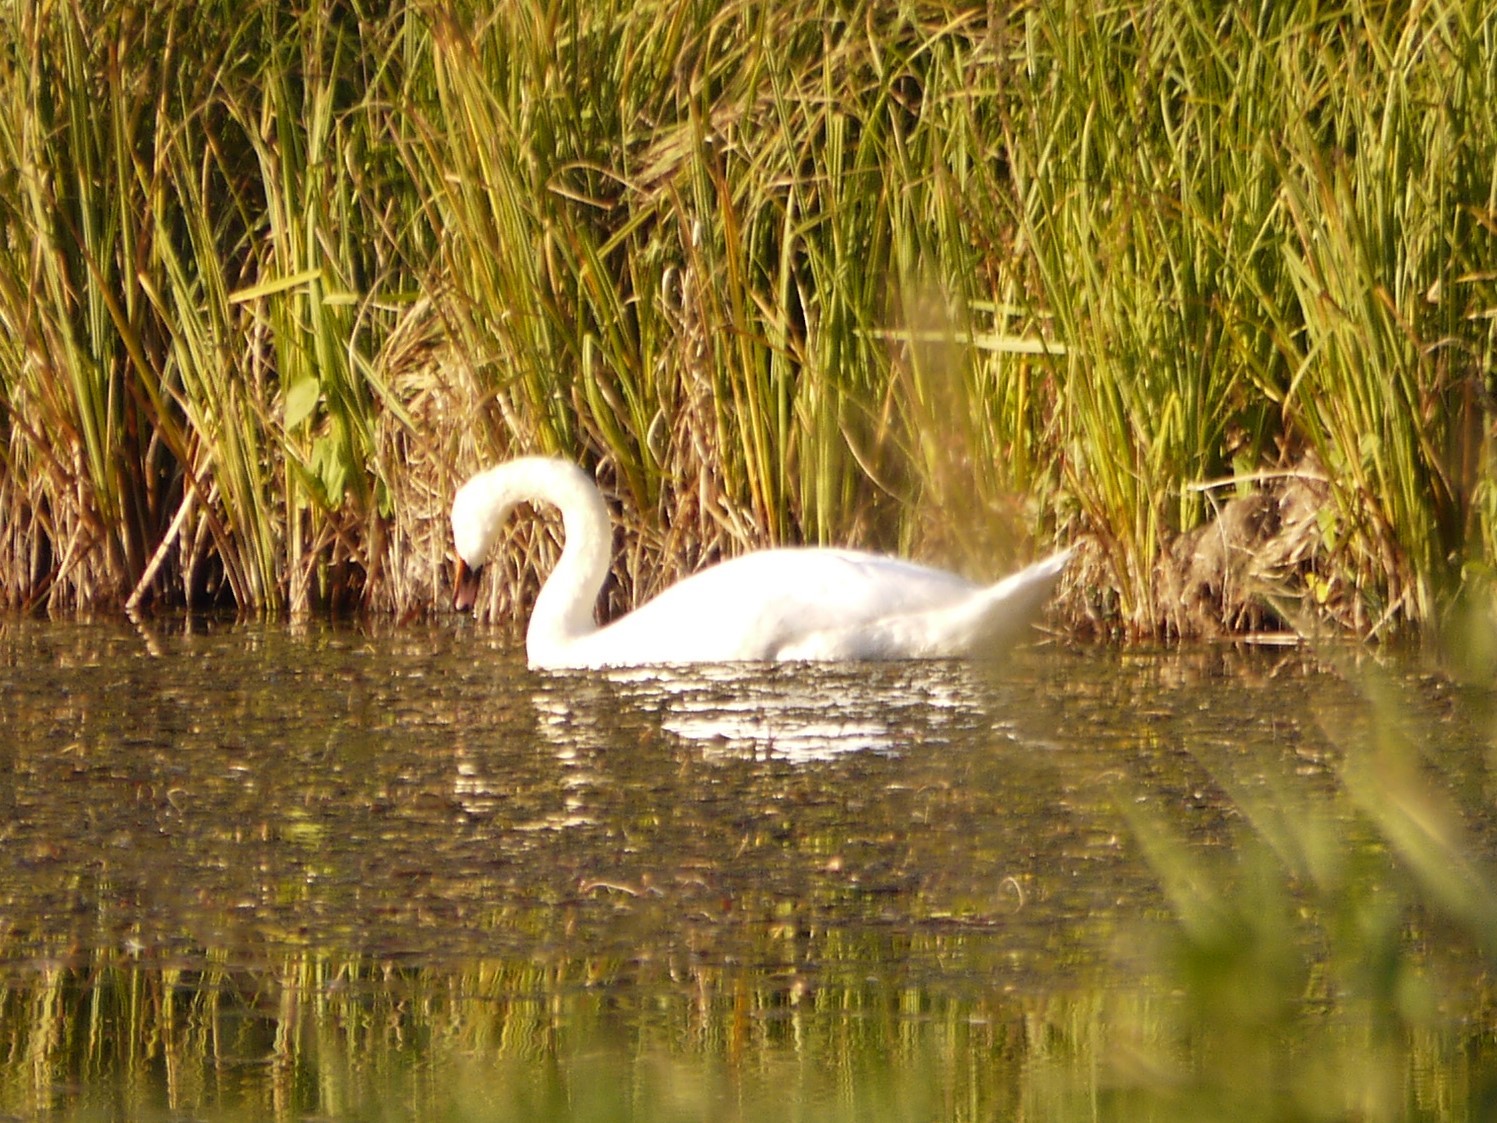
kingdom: Animalia
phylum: Chordata
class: Aves
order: Anseriformes
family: Anatidae
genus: Cygnus
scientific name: Cygnus olor
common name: Mute swan
